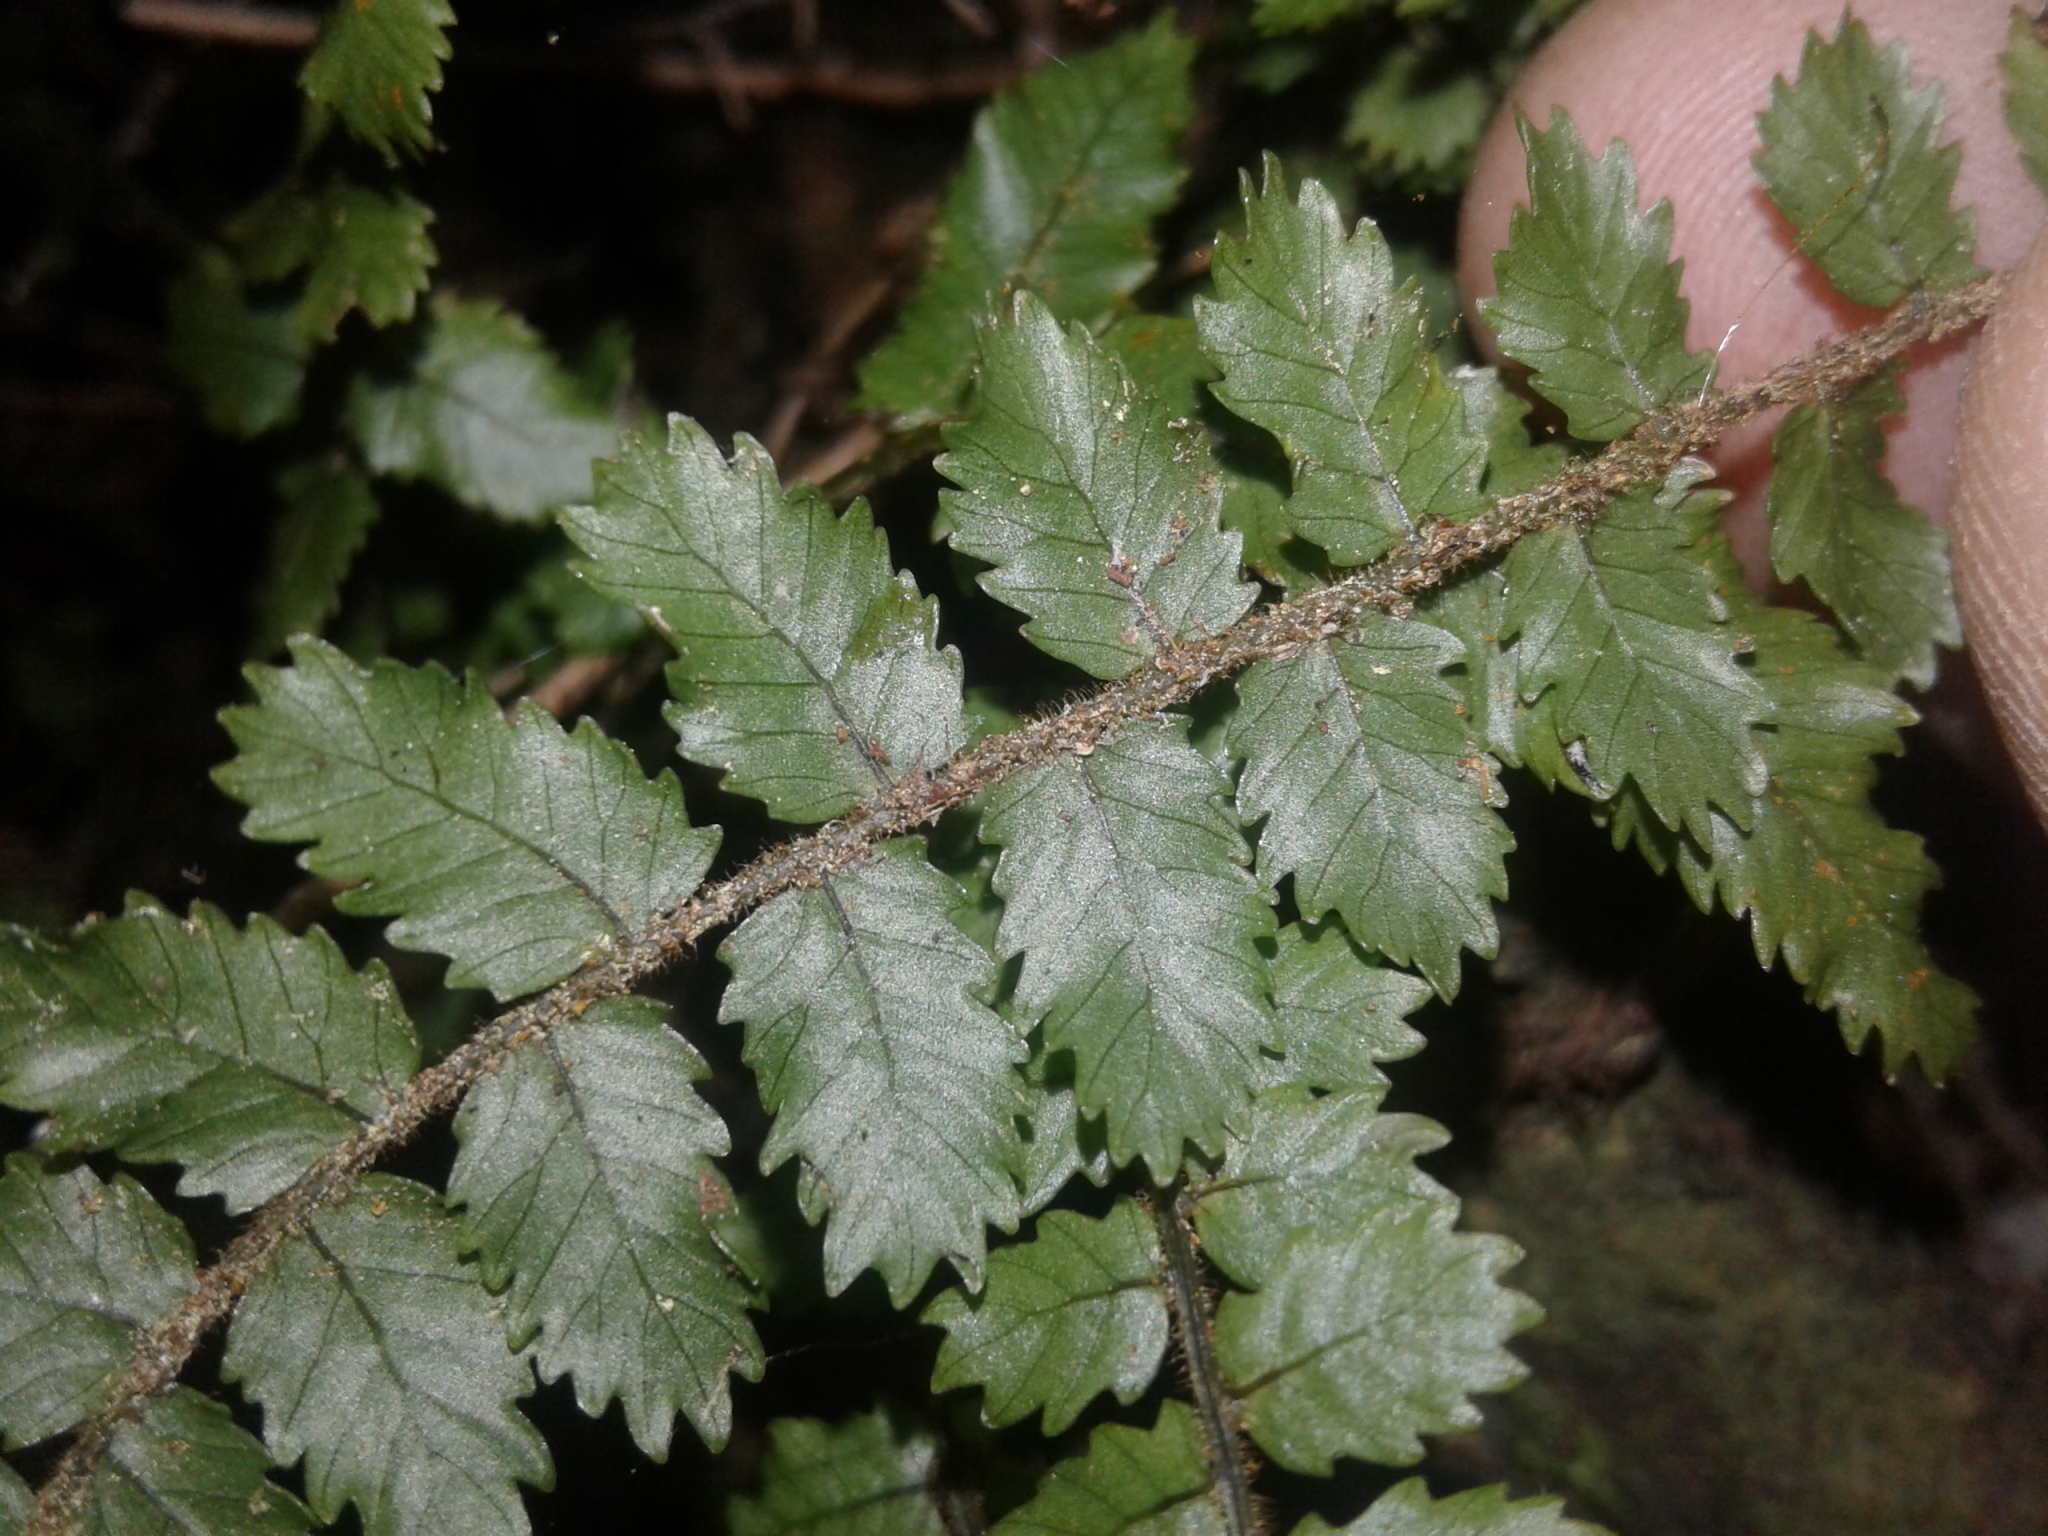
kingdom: Plantae
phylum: Tracheophyta
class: Polypodiopsida
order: Polypodiales
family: Blechnaceae
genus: Icarus
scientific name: Icarus filiformis
